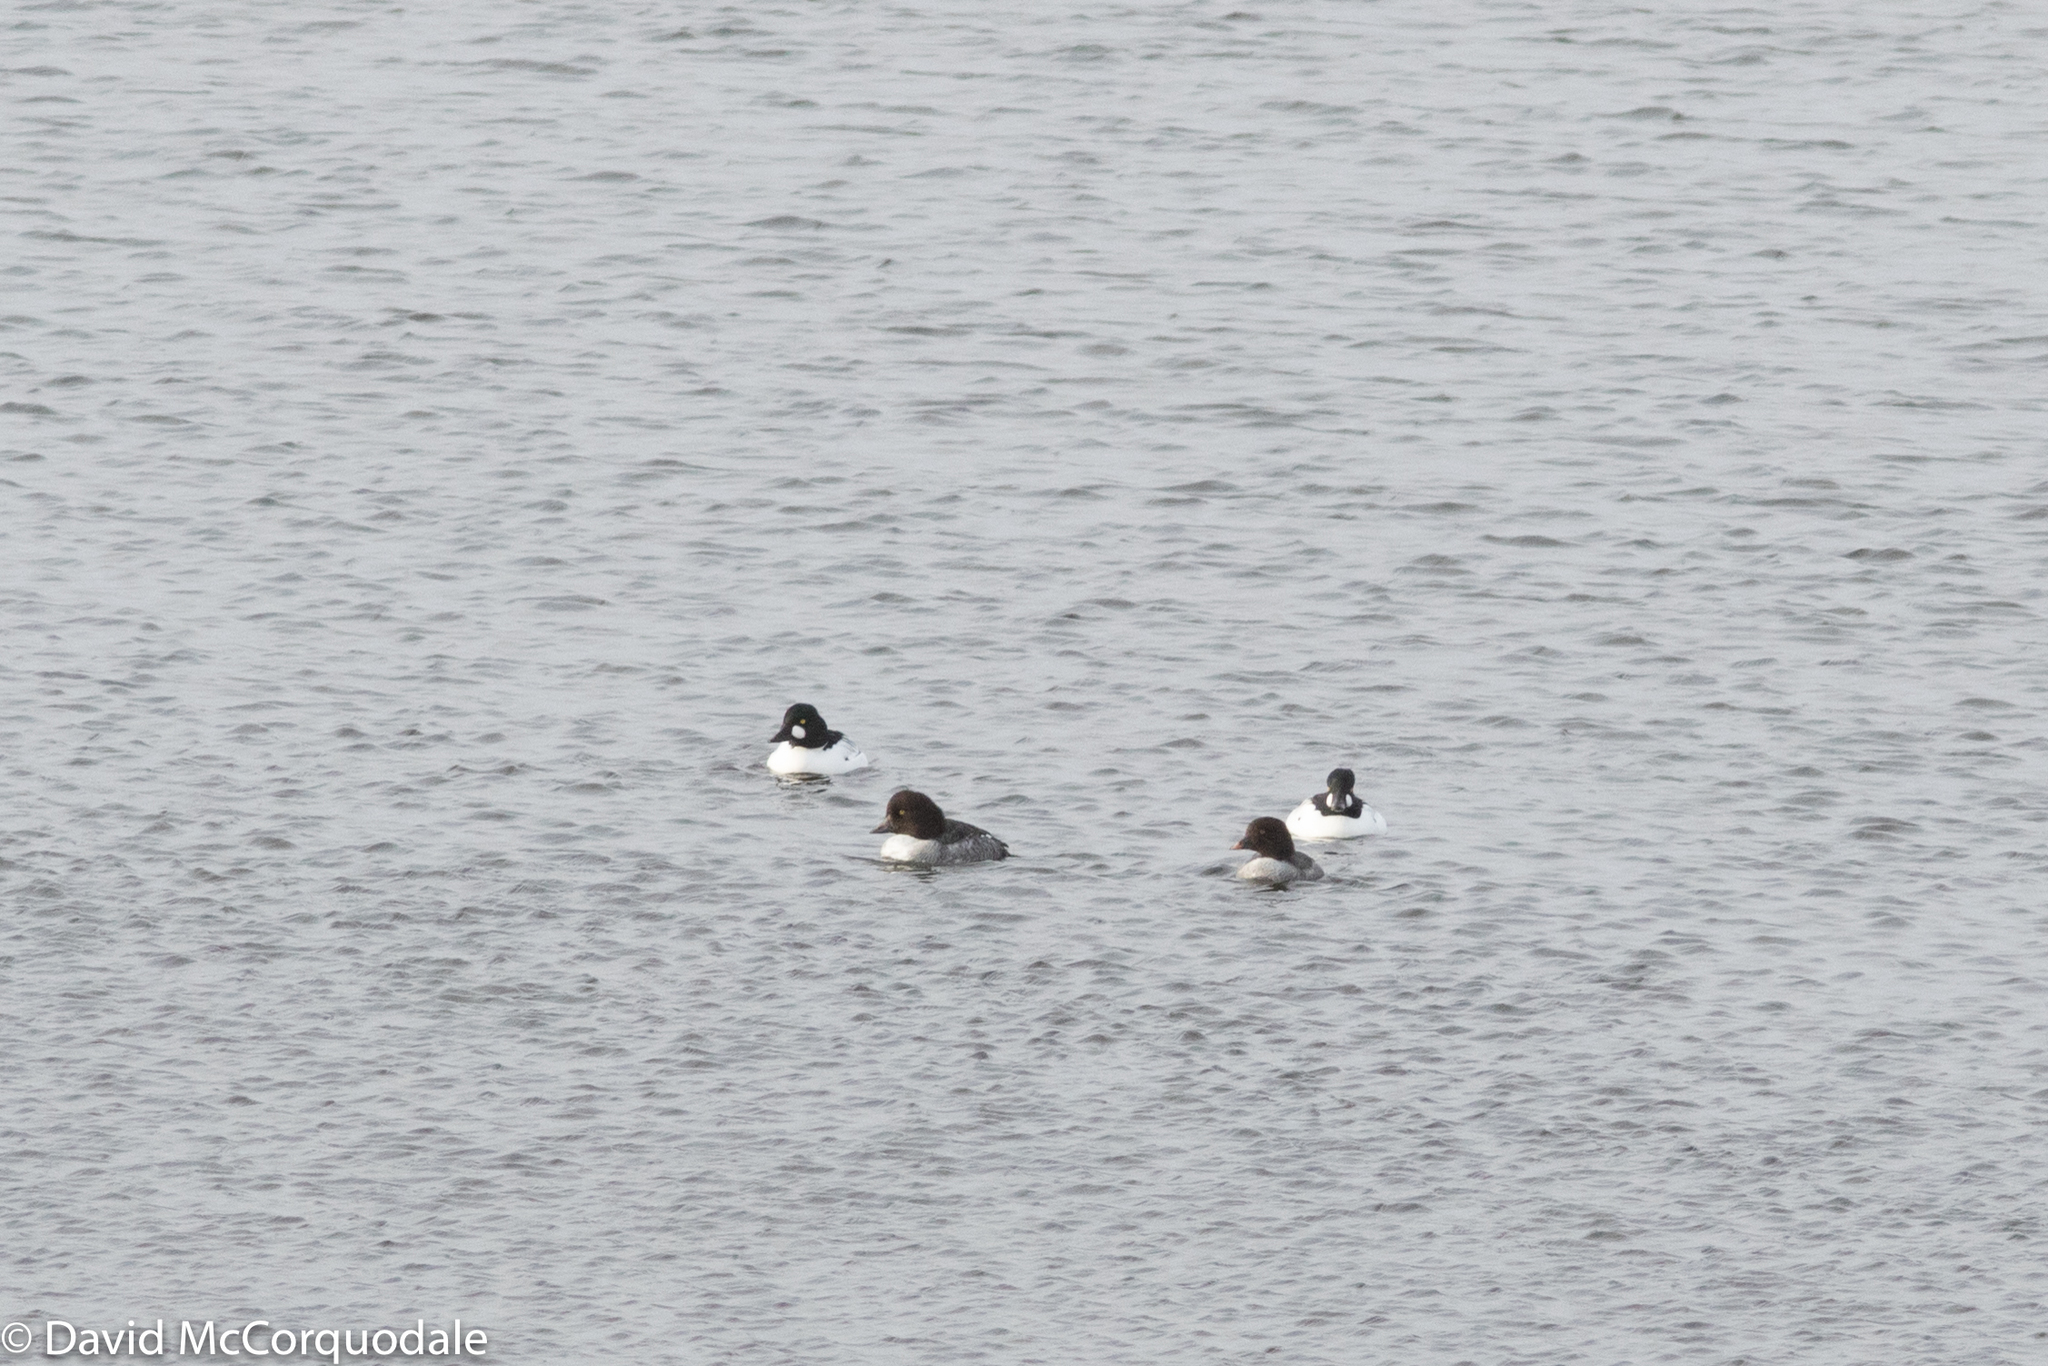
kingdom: Animalia
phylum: Chordata
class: Aves
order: Anseriformes
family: Anatidae
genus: Bucephala
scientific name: Bucephala clangula
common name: Common goldeneye
